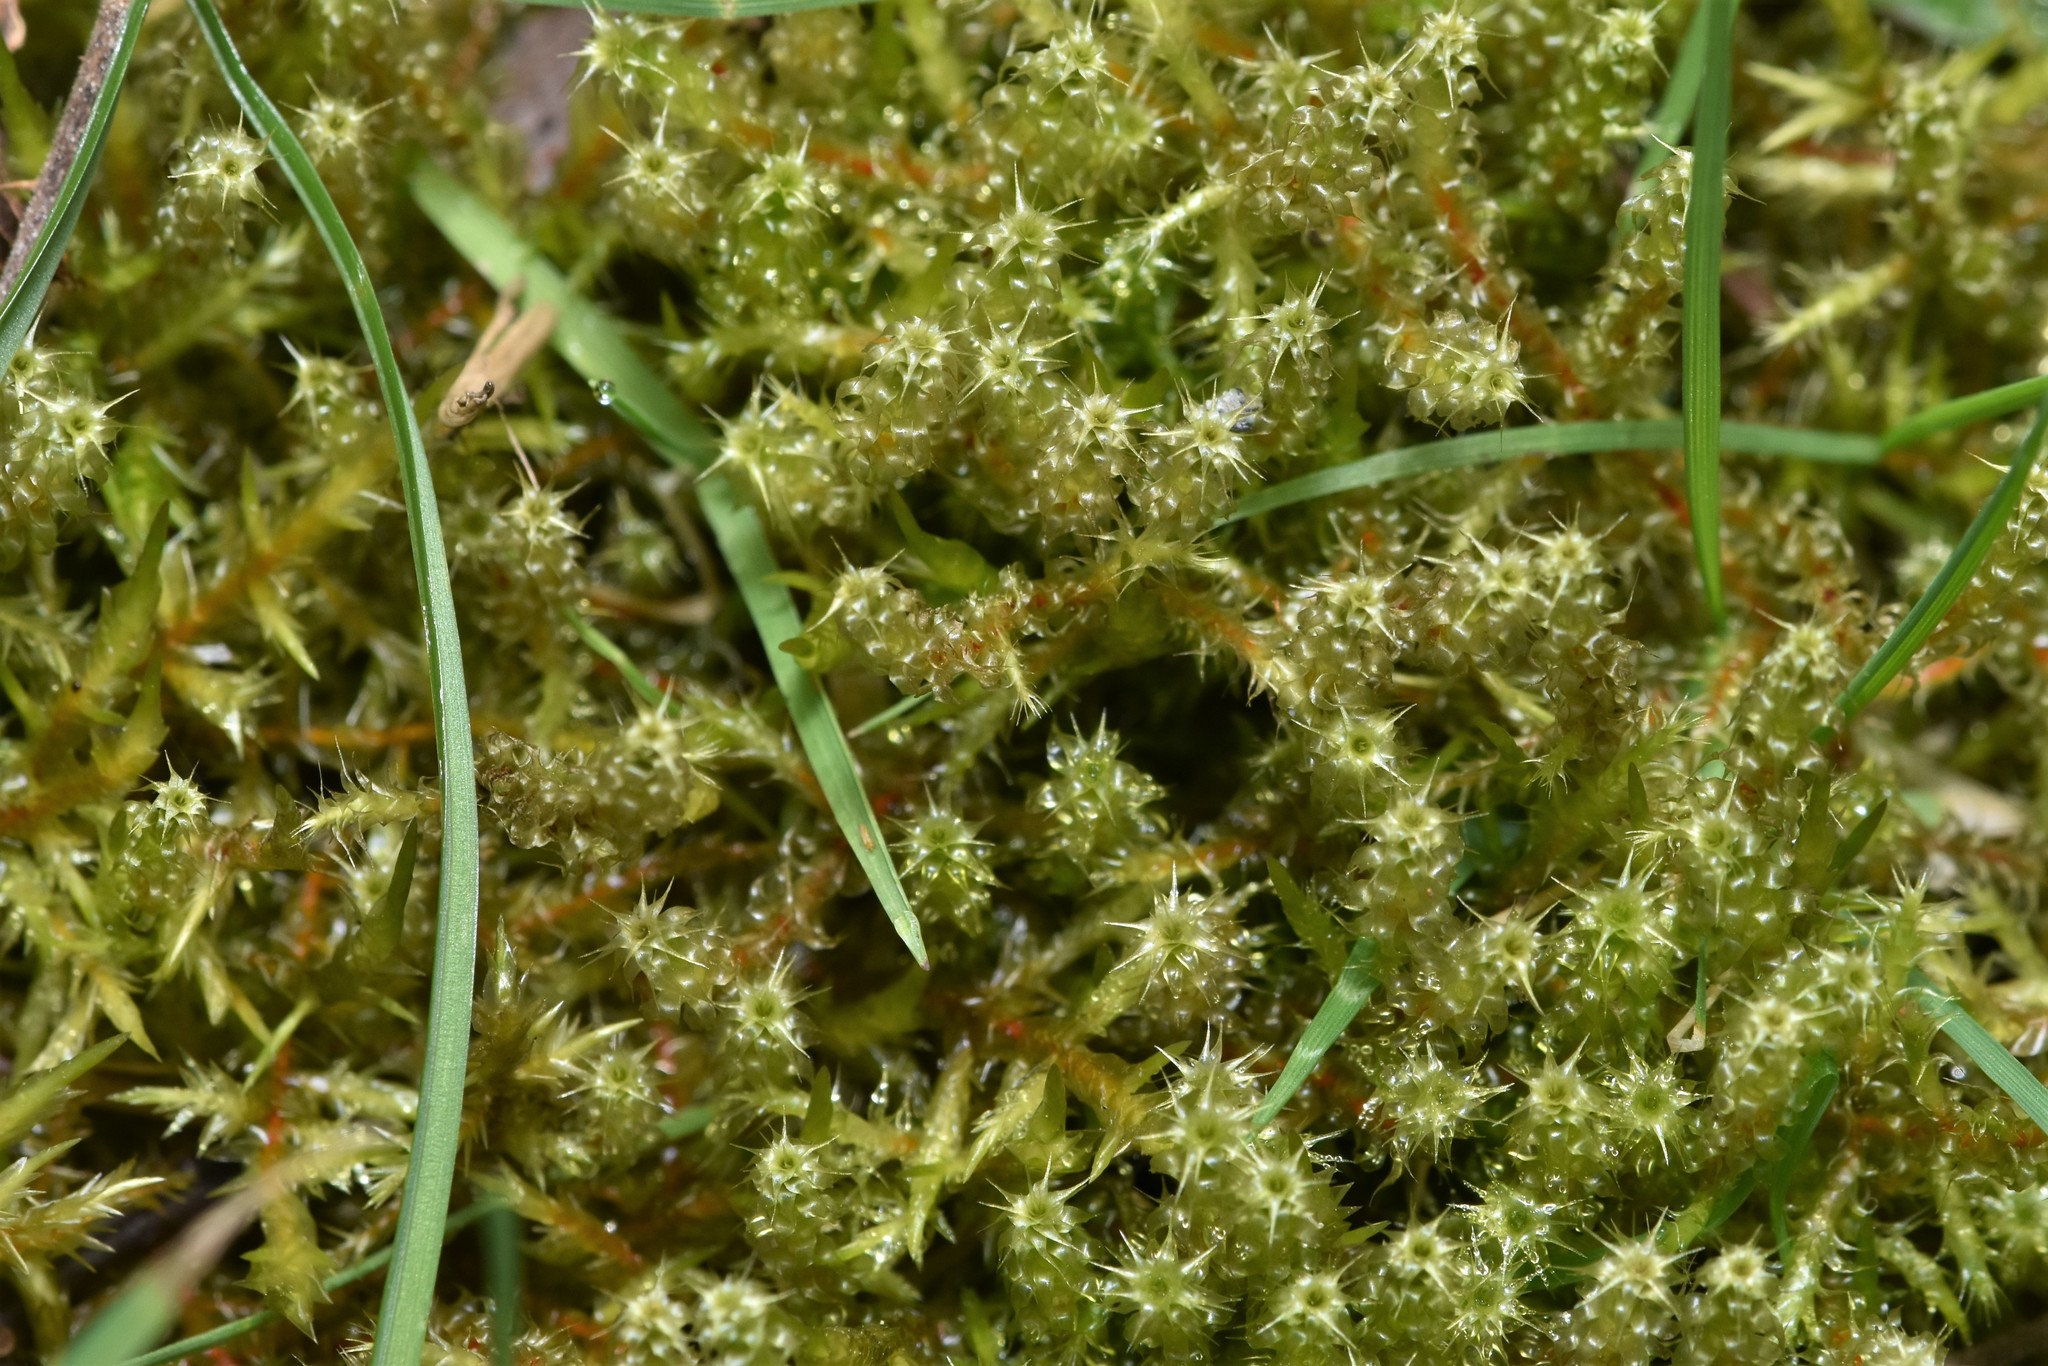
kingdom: Plantae
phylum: Bryophyta
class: Bryopsida
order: Hypnales
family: Hylocomiaceae
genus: Rhytidiadelphus
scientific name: Rhytidiadelphus squarrosus
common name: Springy turf-moss
